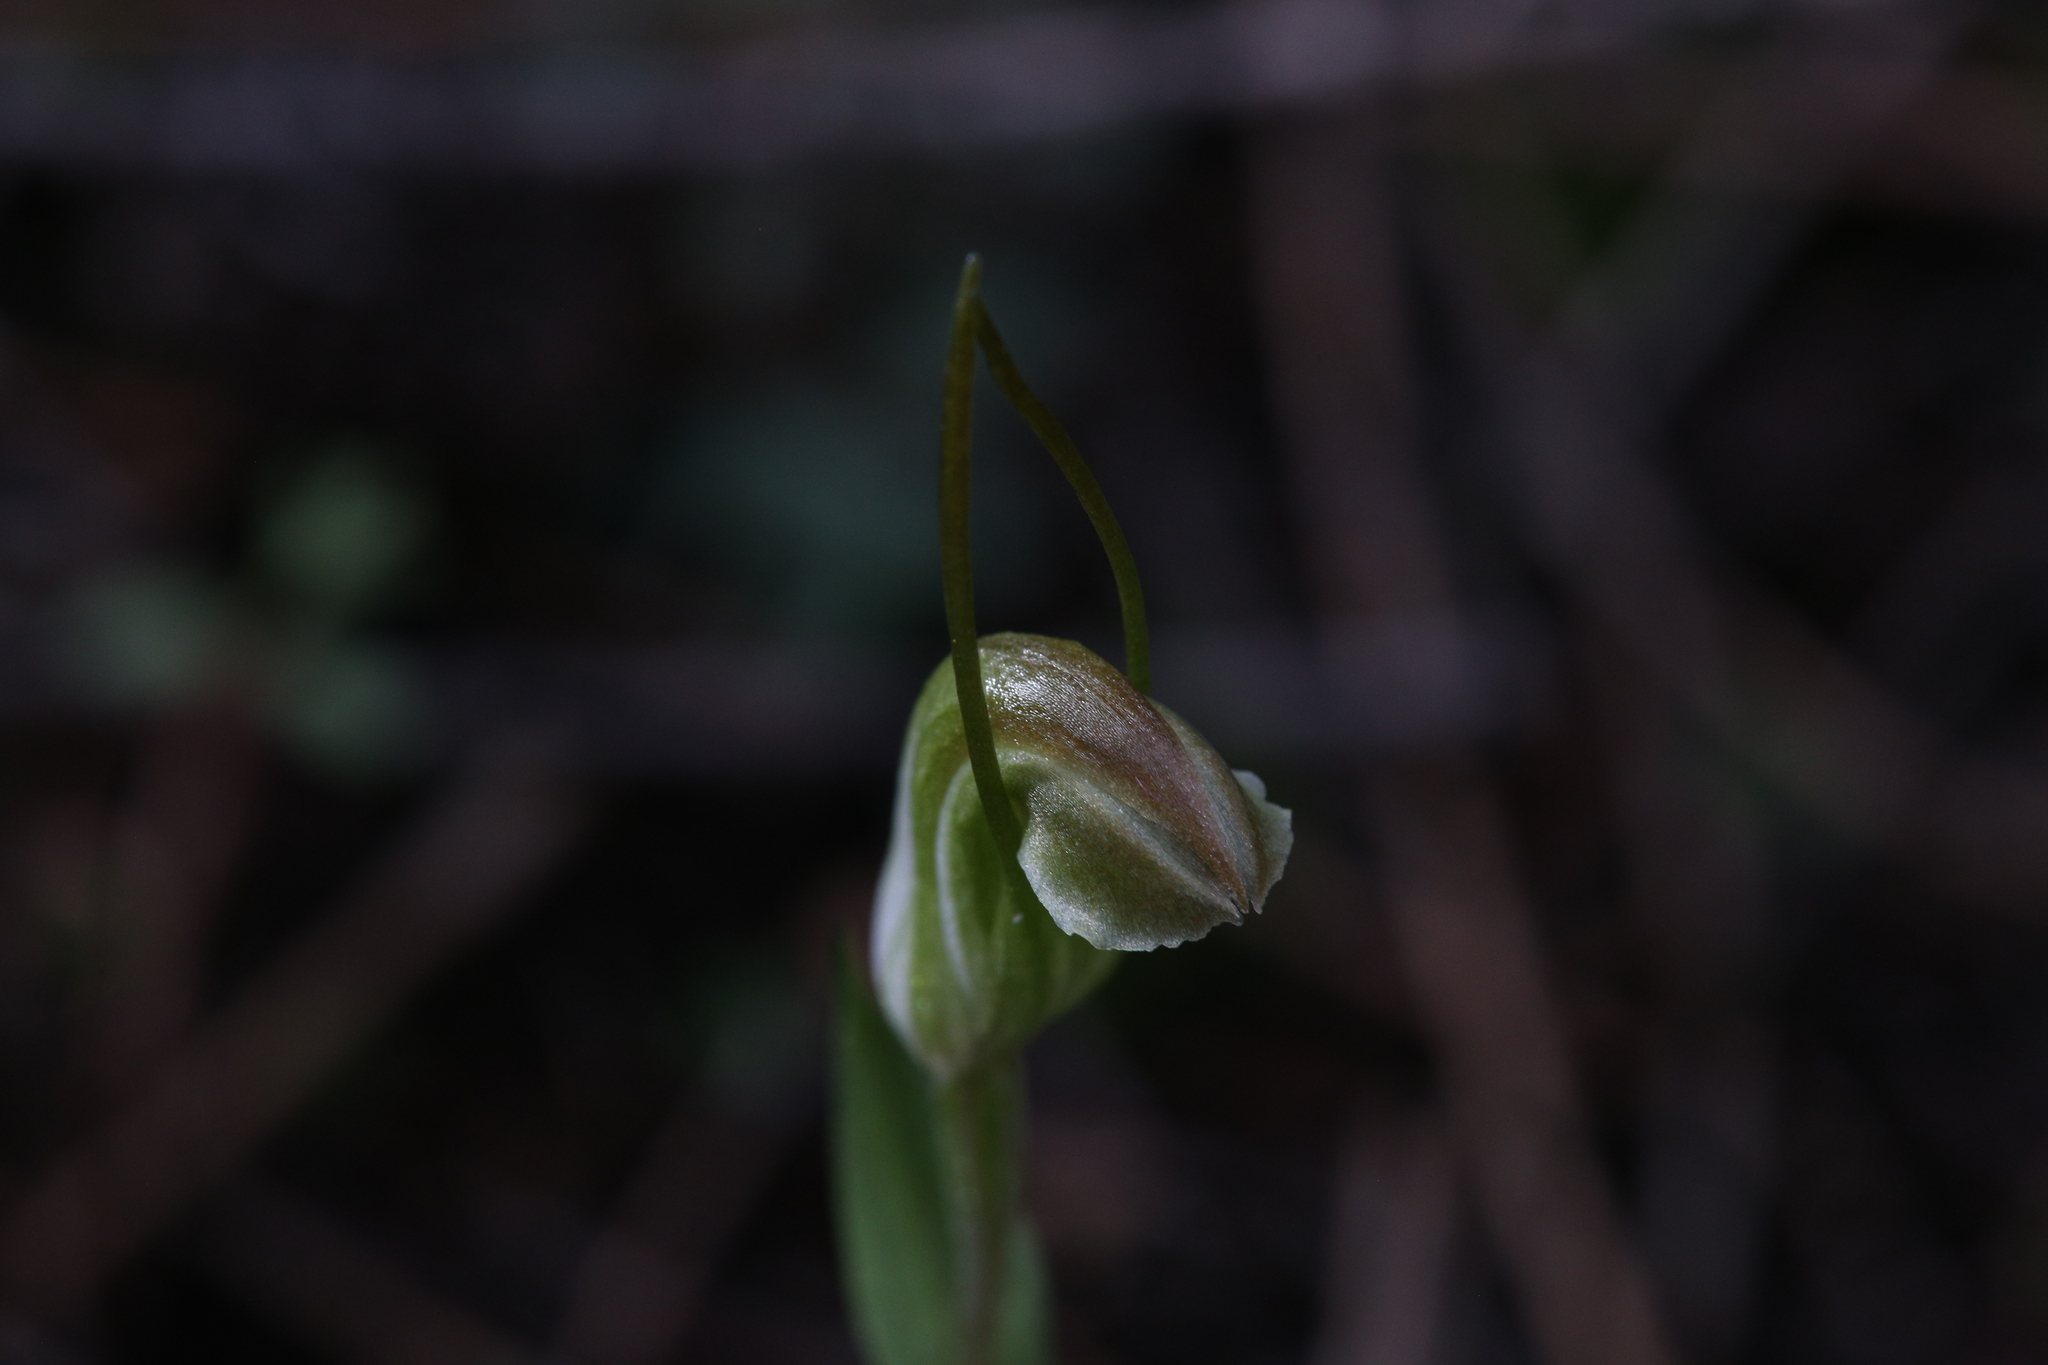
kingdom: Plantae
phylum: Tracheophyta
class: Liliopsida
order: Asparagales
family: Orchidaceae
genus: Pterostylis
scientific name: Pterostylis erubescens
